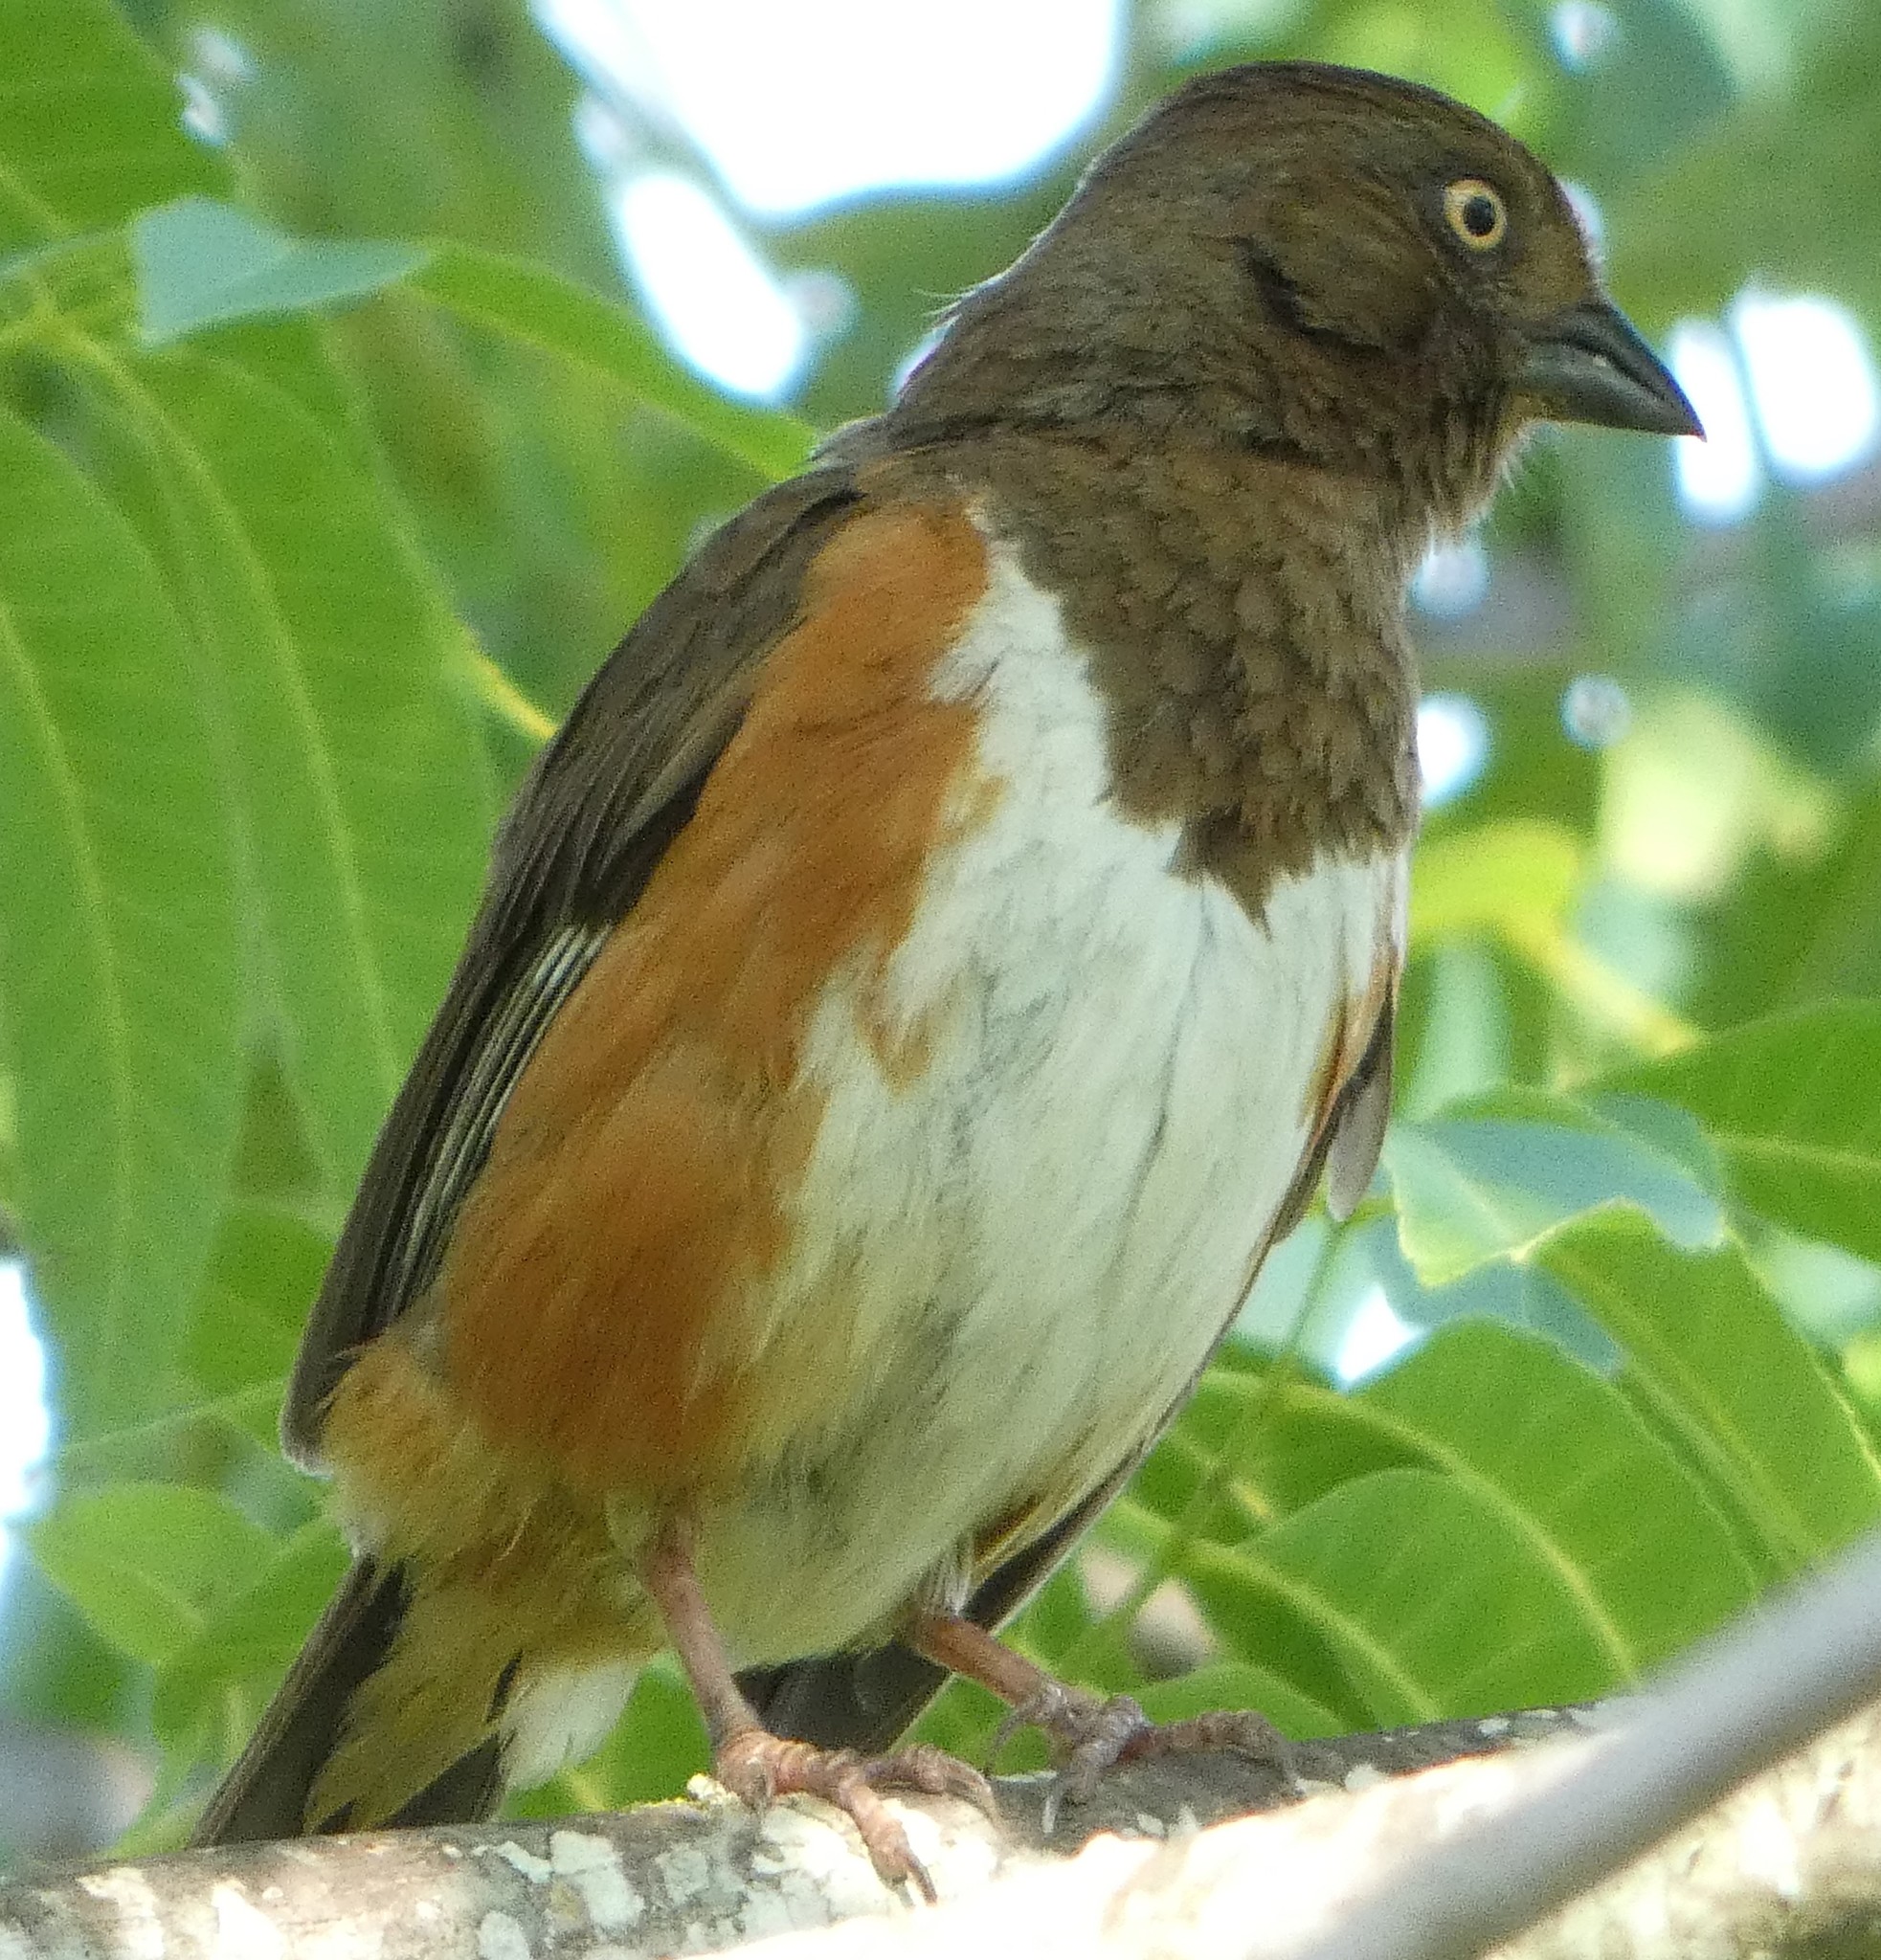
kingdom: Animalia
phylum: Chordata
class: Aves
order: Passeriformes
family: Passerellidae
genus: Pipilo
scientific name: Pipilo erythrophthalmus
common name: Eastern towhee
